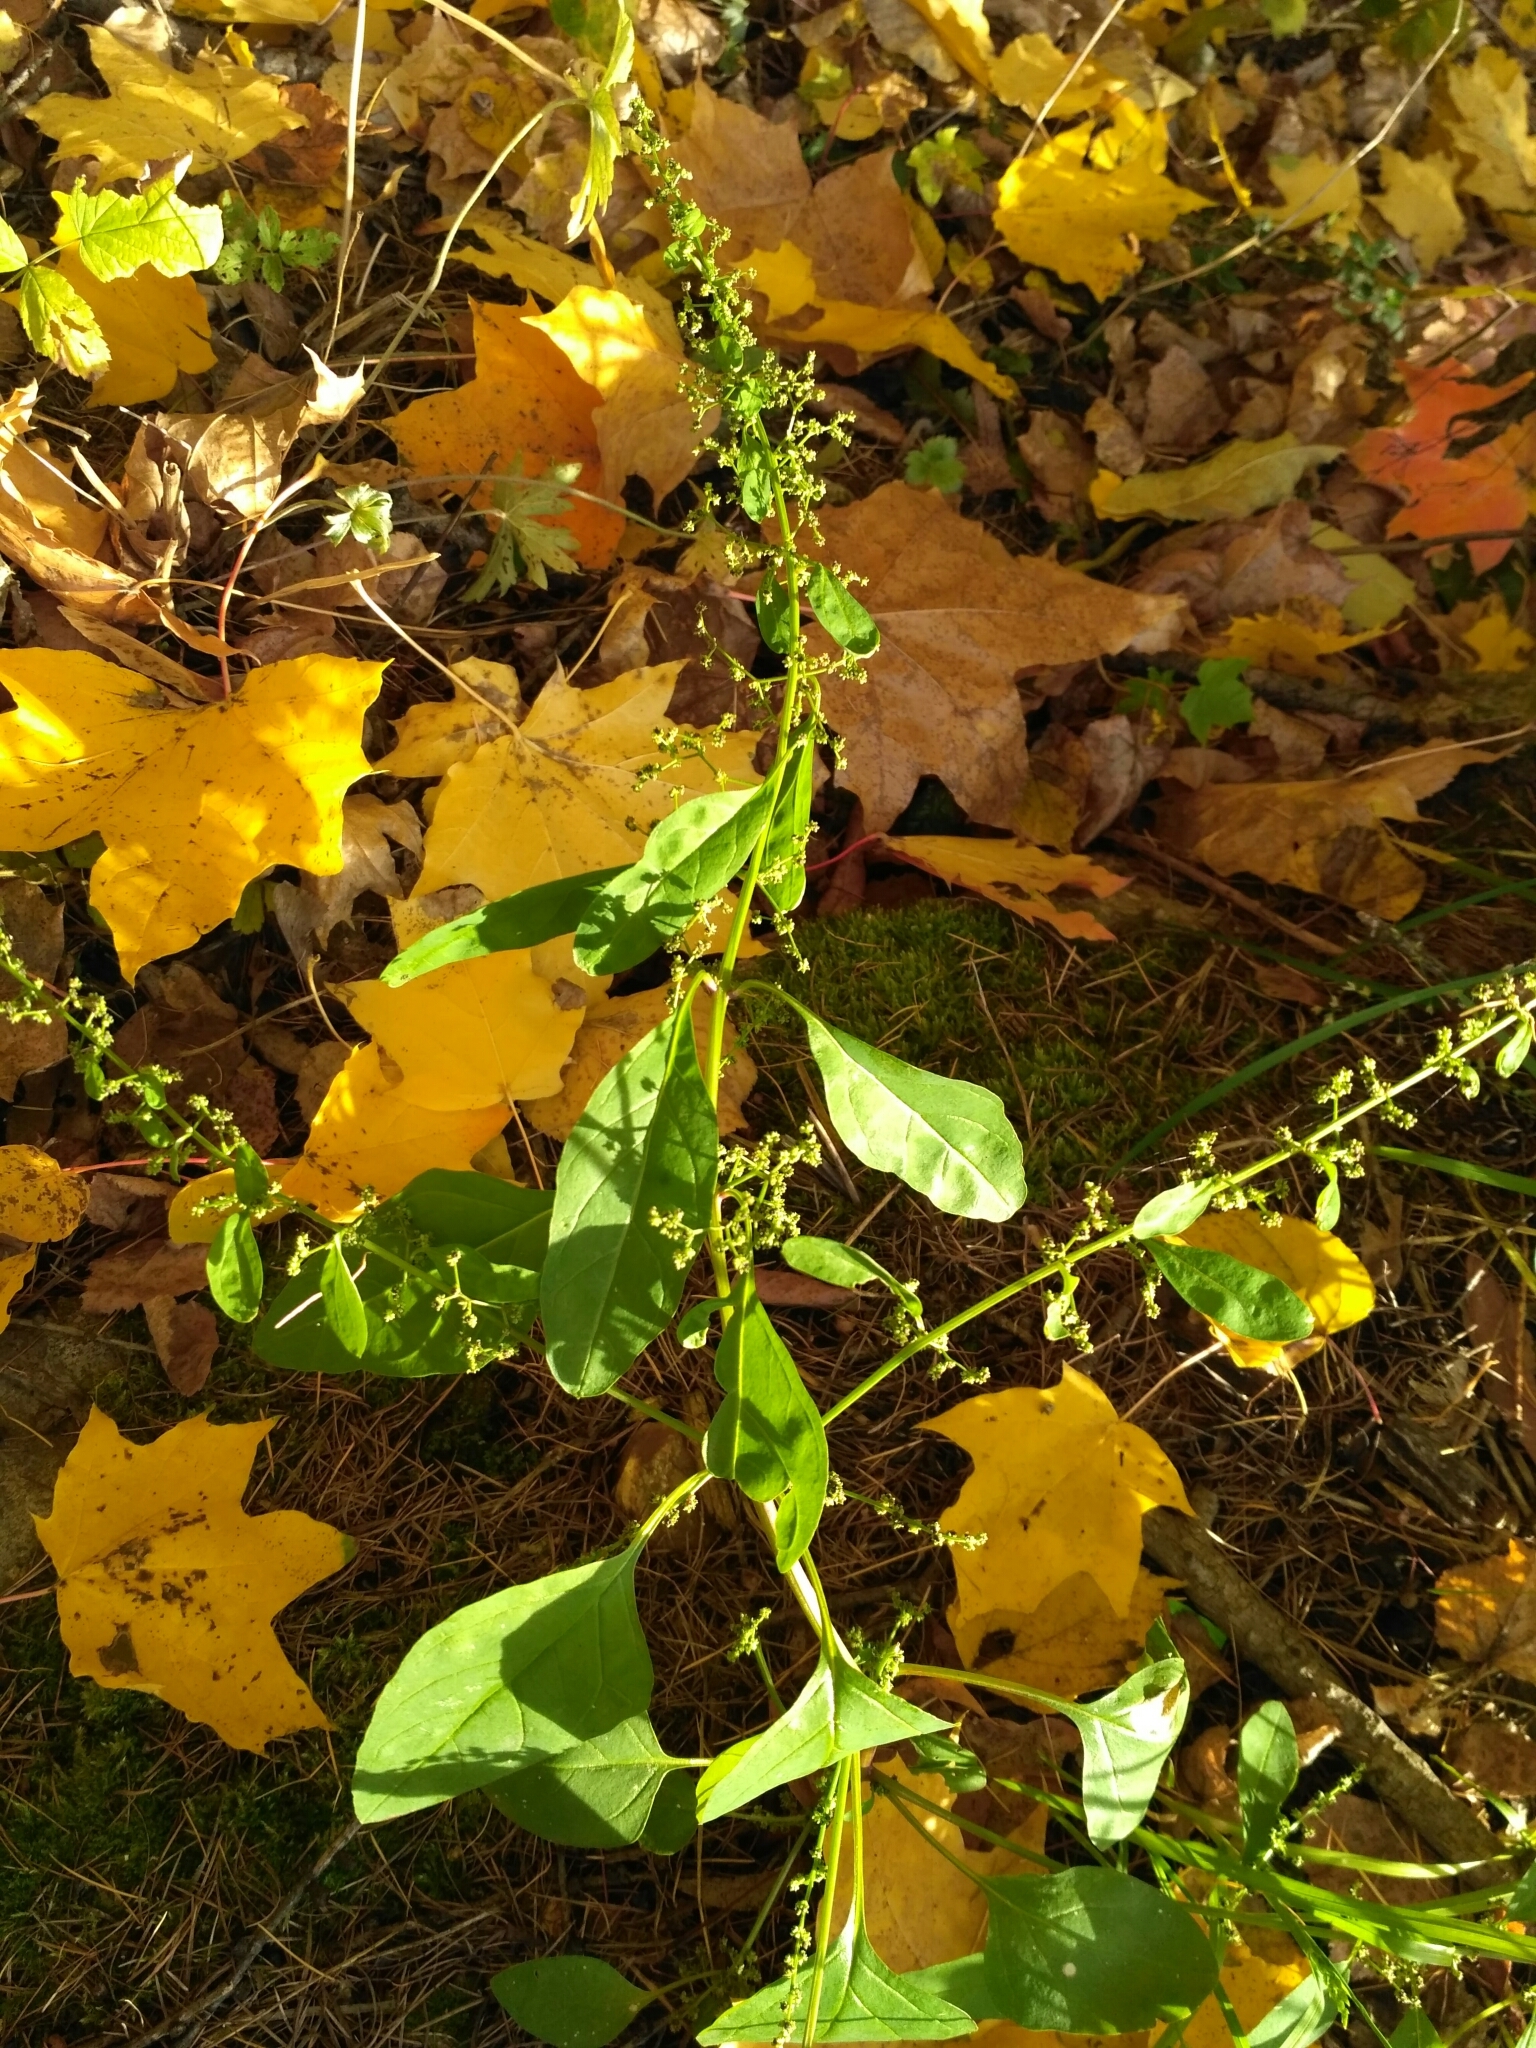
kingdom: Plantae
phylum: Tracheophyta
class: Magnoliopsida
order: Caryophyllales
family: Amaranthaceae
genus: Lipandra
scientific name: Lipandra polysperma
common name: Many-seed goosefoot
